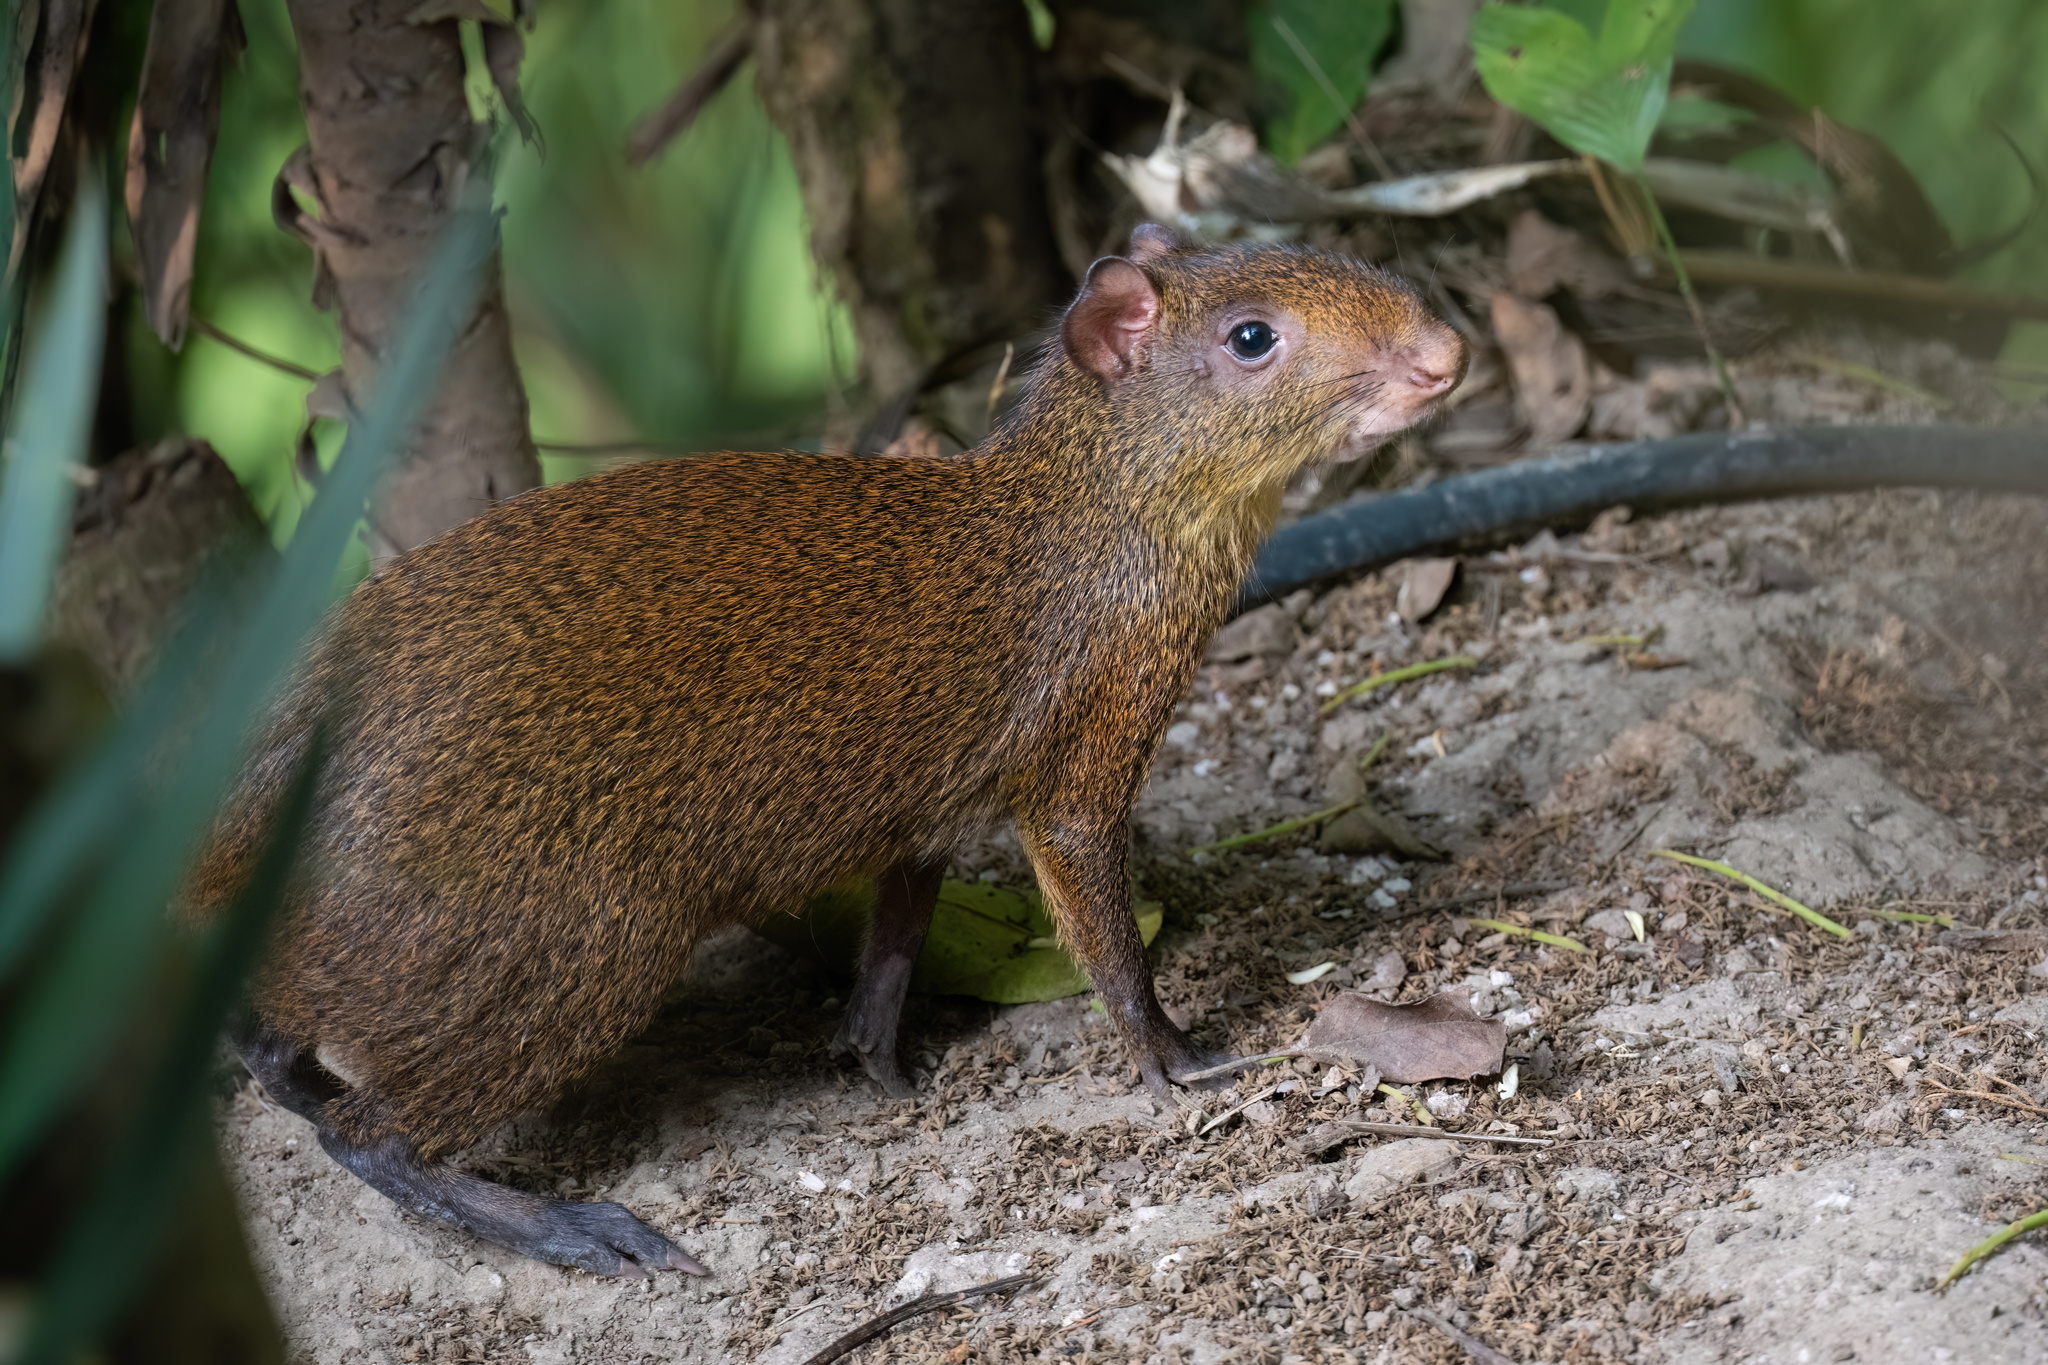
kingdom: Animalia
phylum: Chordata
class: Mammalia
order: Rodentia
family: Dasyproctidae
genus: Dasyprocta
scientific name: Dasyprocta punctata
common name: Central american agouti
